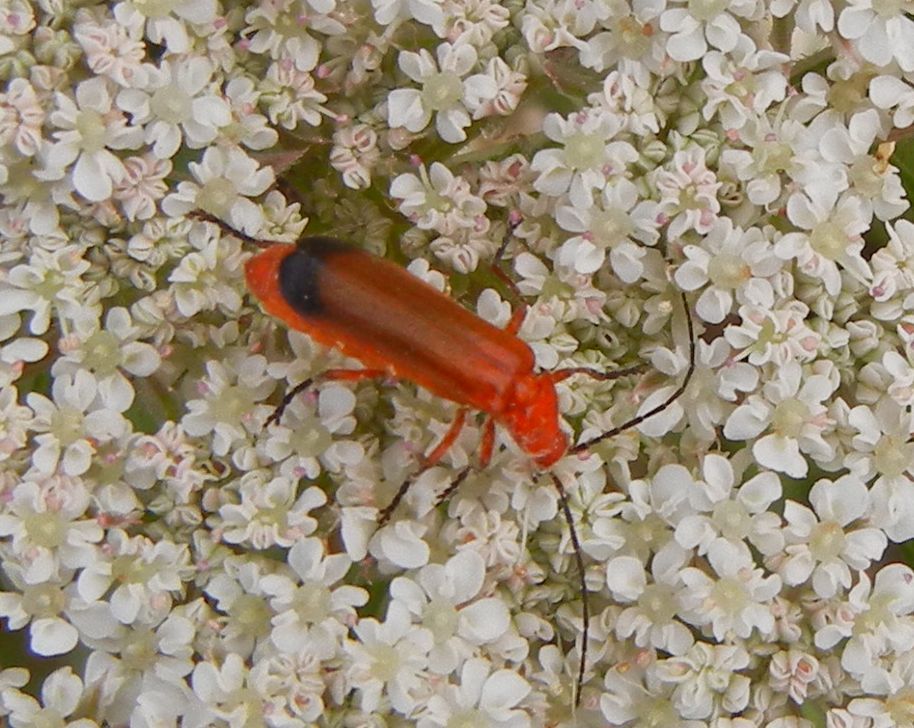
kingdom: Animalia
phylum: Arthropoda
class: Insecta
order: Coleoptera
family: Cantharidae
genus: Rhagonycha
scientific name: Rhagonycha fulva
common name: Common red soldier beetle
